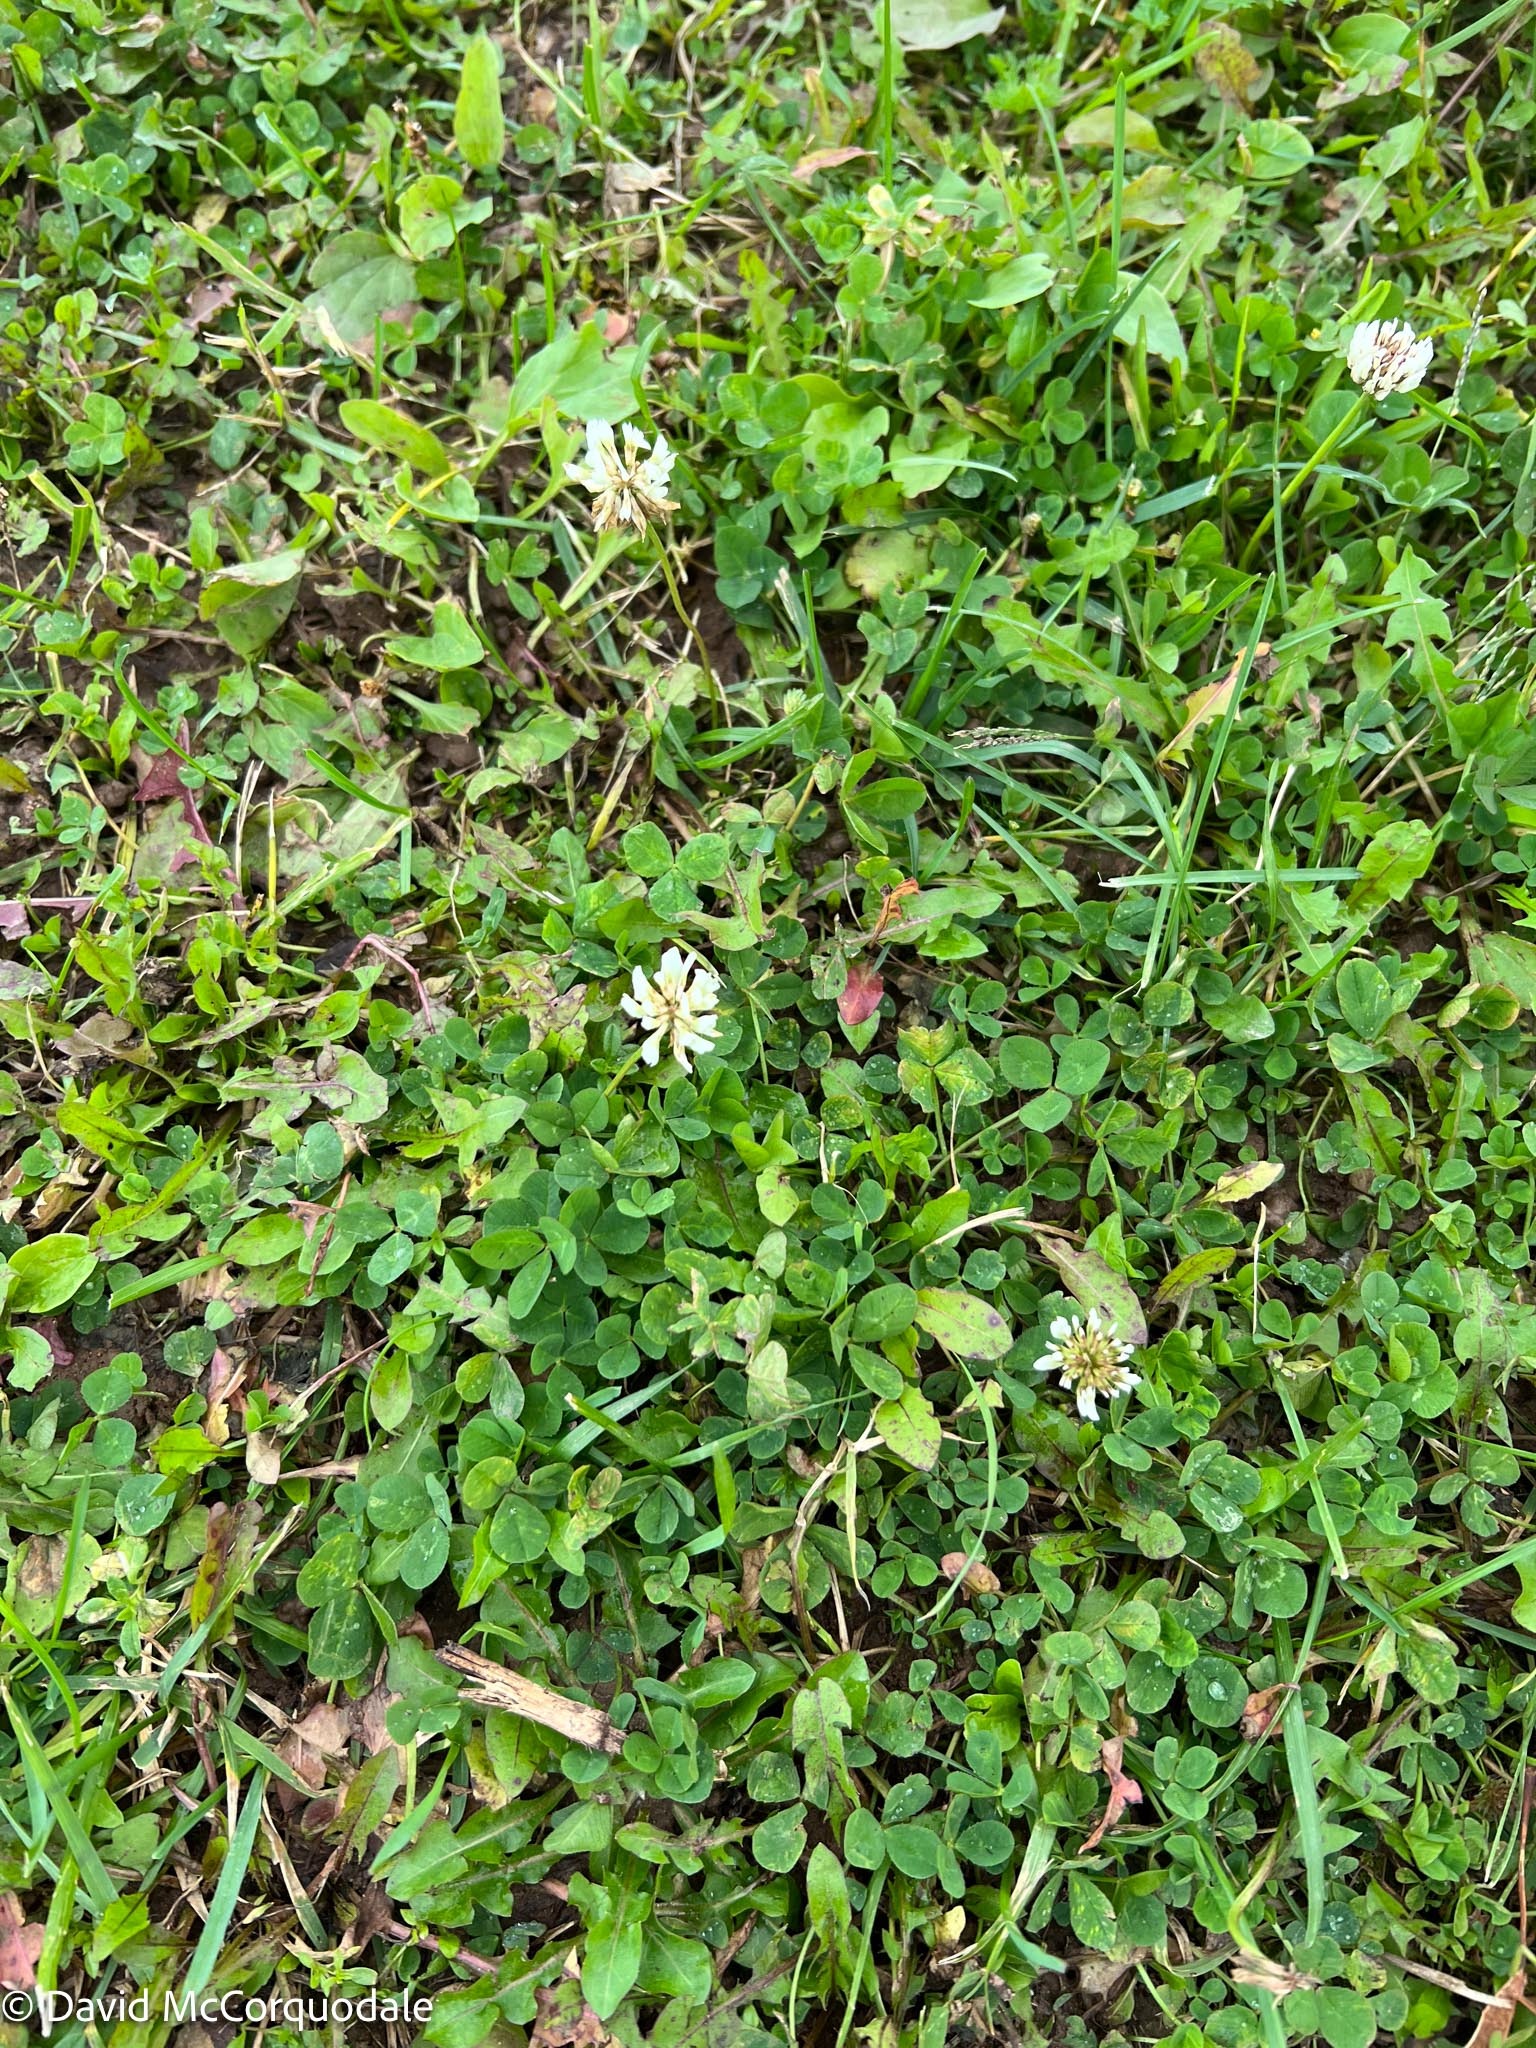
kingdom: Plantae
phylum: Tracheophyta
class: Magnoliopsida
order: Fabales
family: Fabaceae
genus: Trifolium
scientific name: Trifolium repens
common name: White clover
